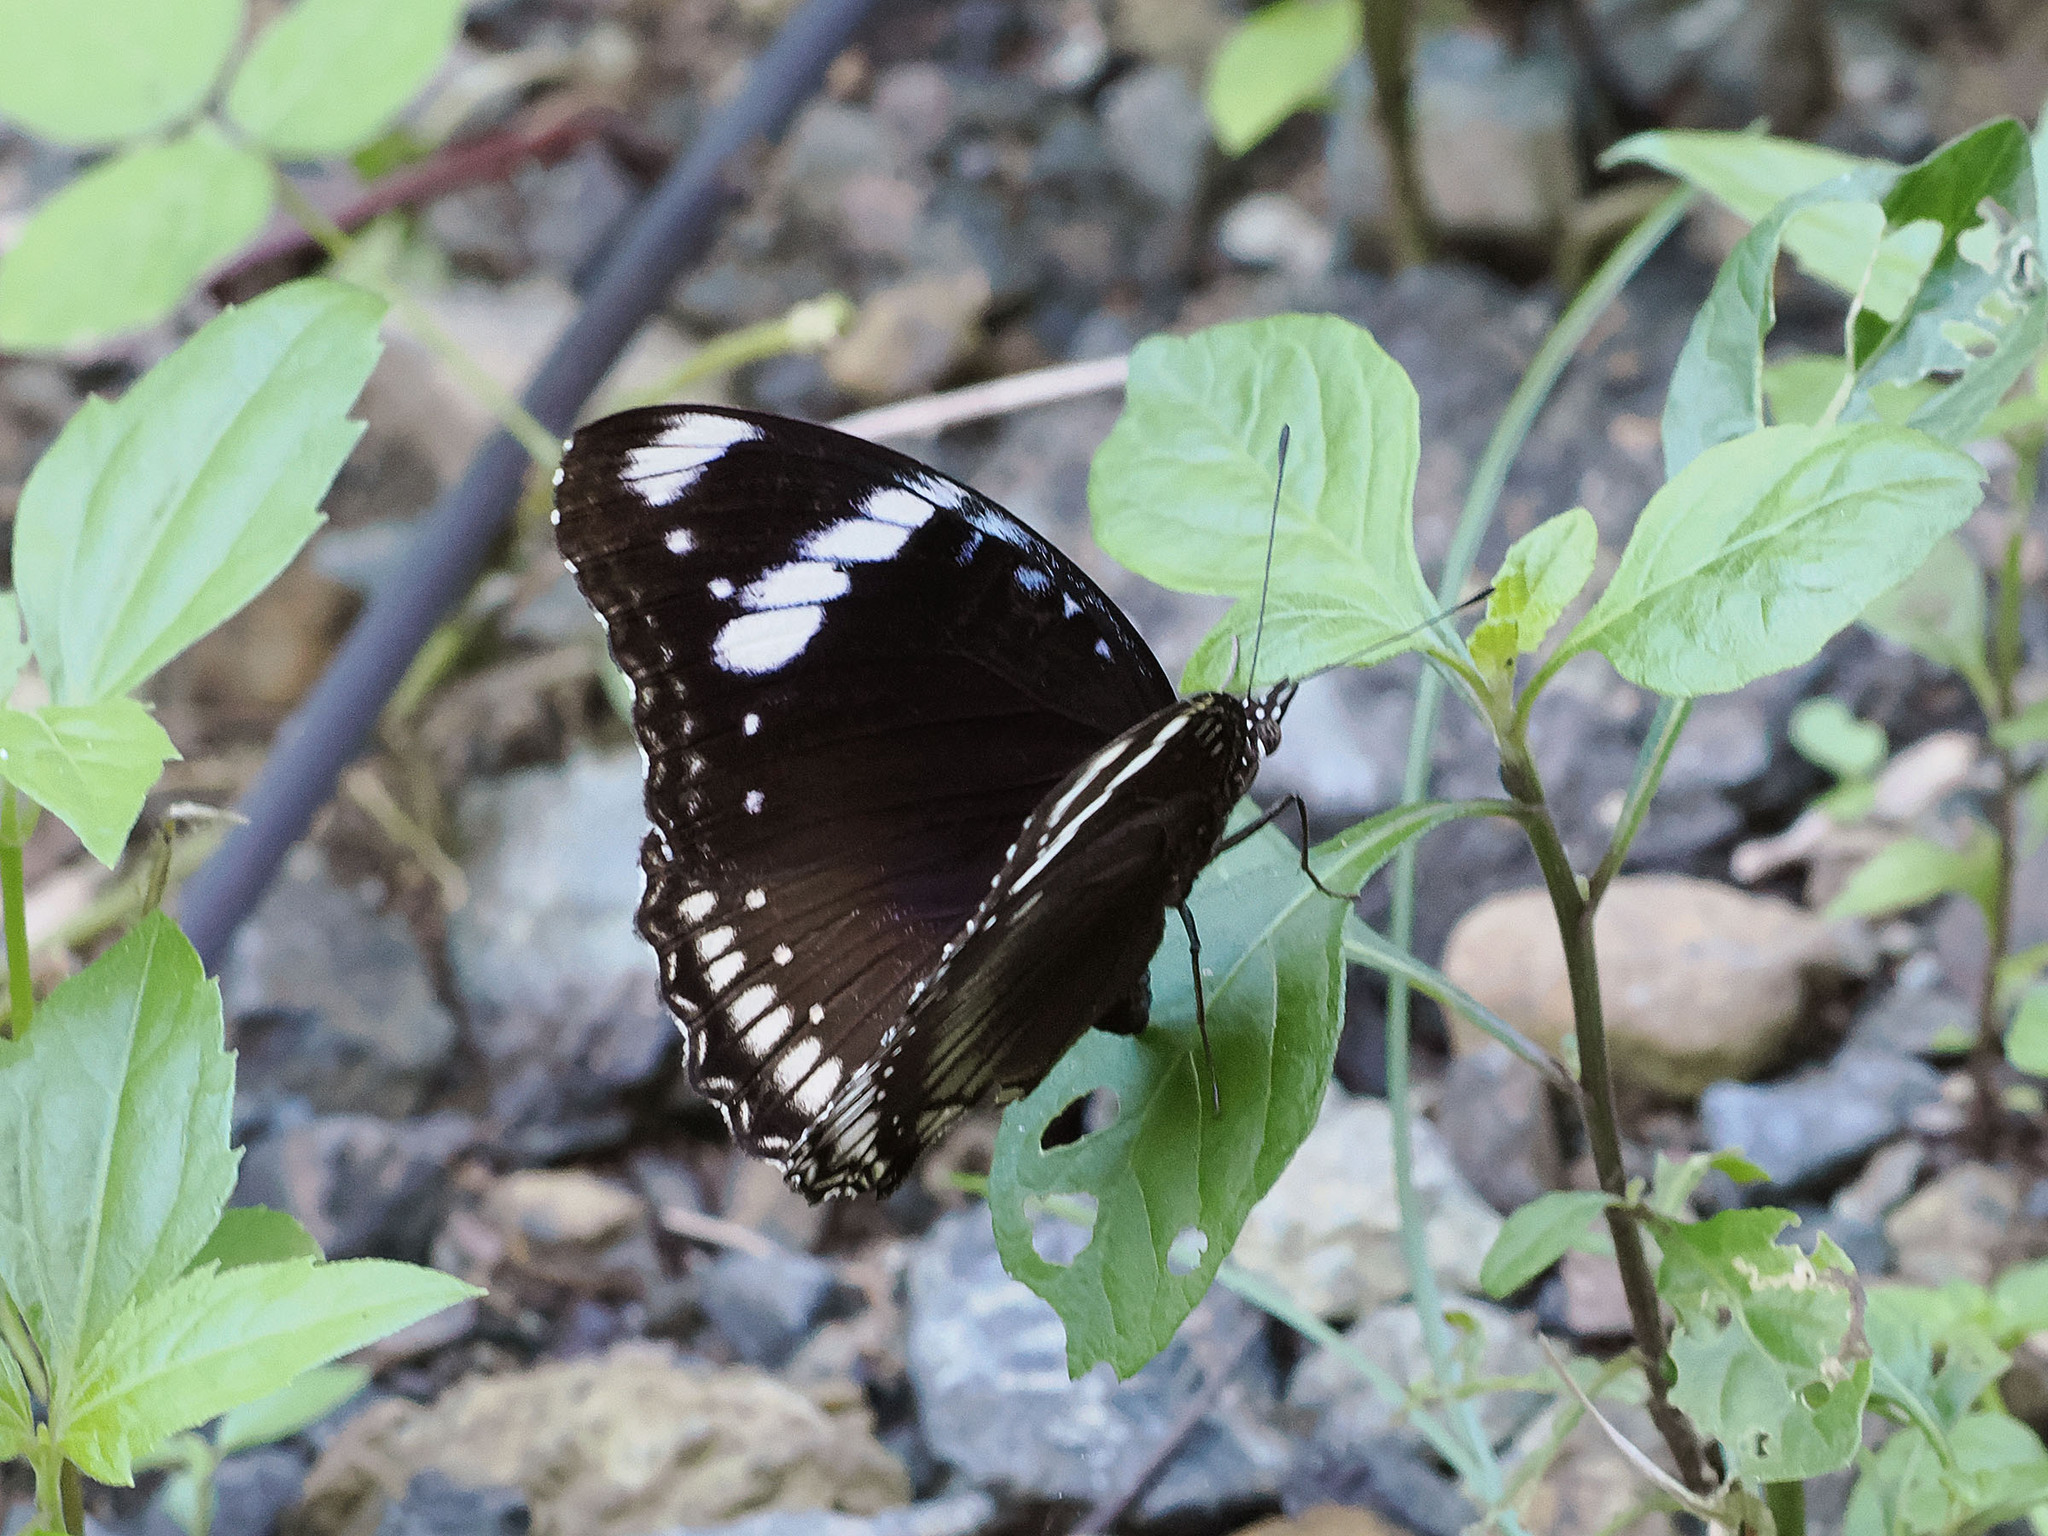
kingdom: Animalia
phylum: Arthropoda
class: Insecta
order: Lepidoptera
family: Nymphalidae
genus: Hypolimnas
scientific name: Hypolimnas bolina
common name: Great eggfly
